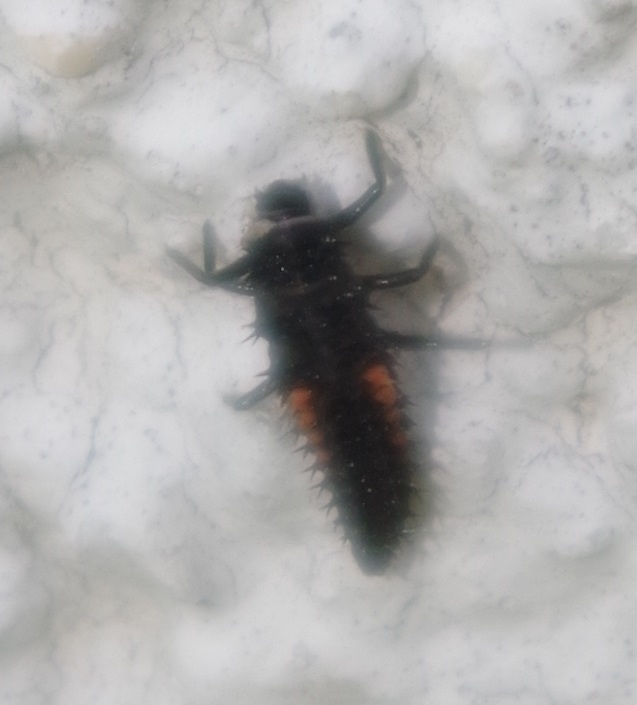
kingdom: Animalia
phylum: Arthropoda
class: Insecta
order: Coleoptera
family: Coccinellidae
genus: Harmonia
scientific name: Harmonia axyridis
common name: Harlequin ladybird
